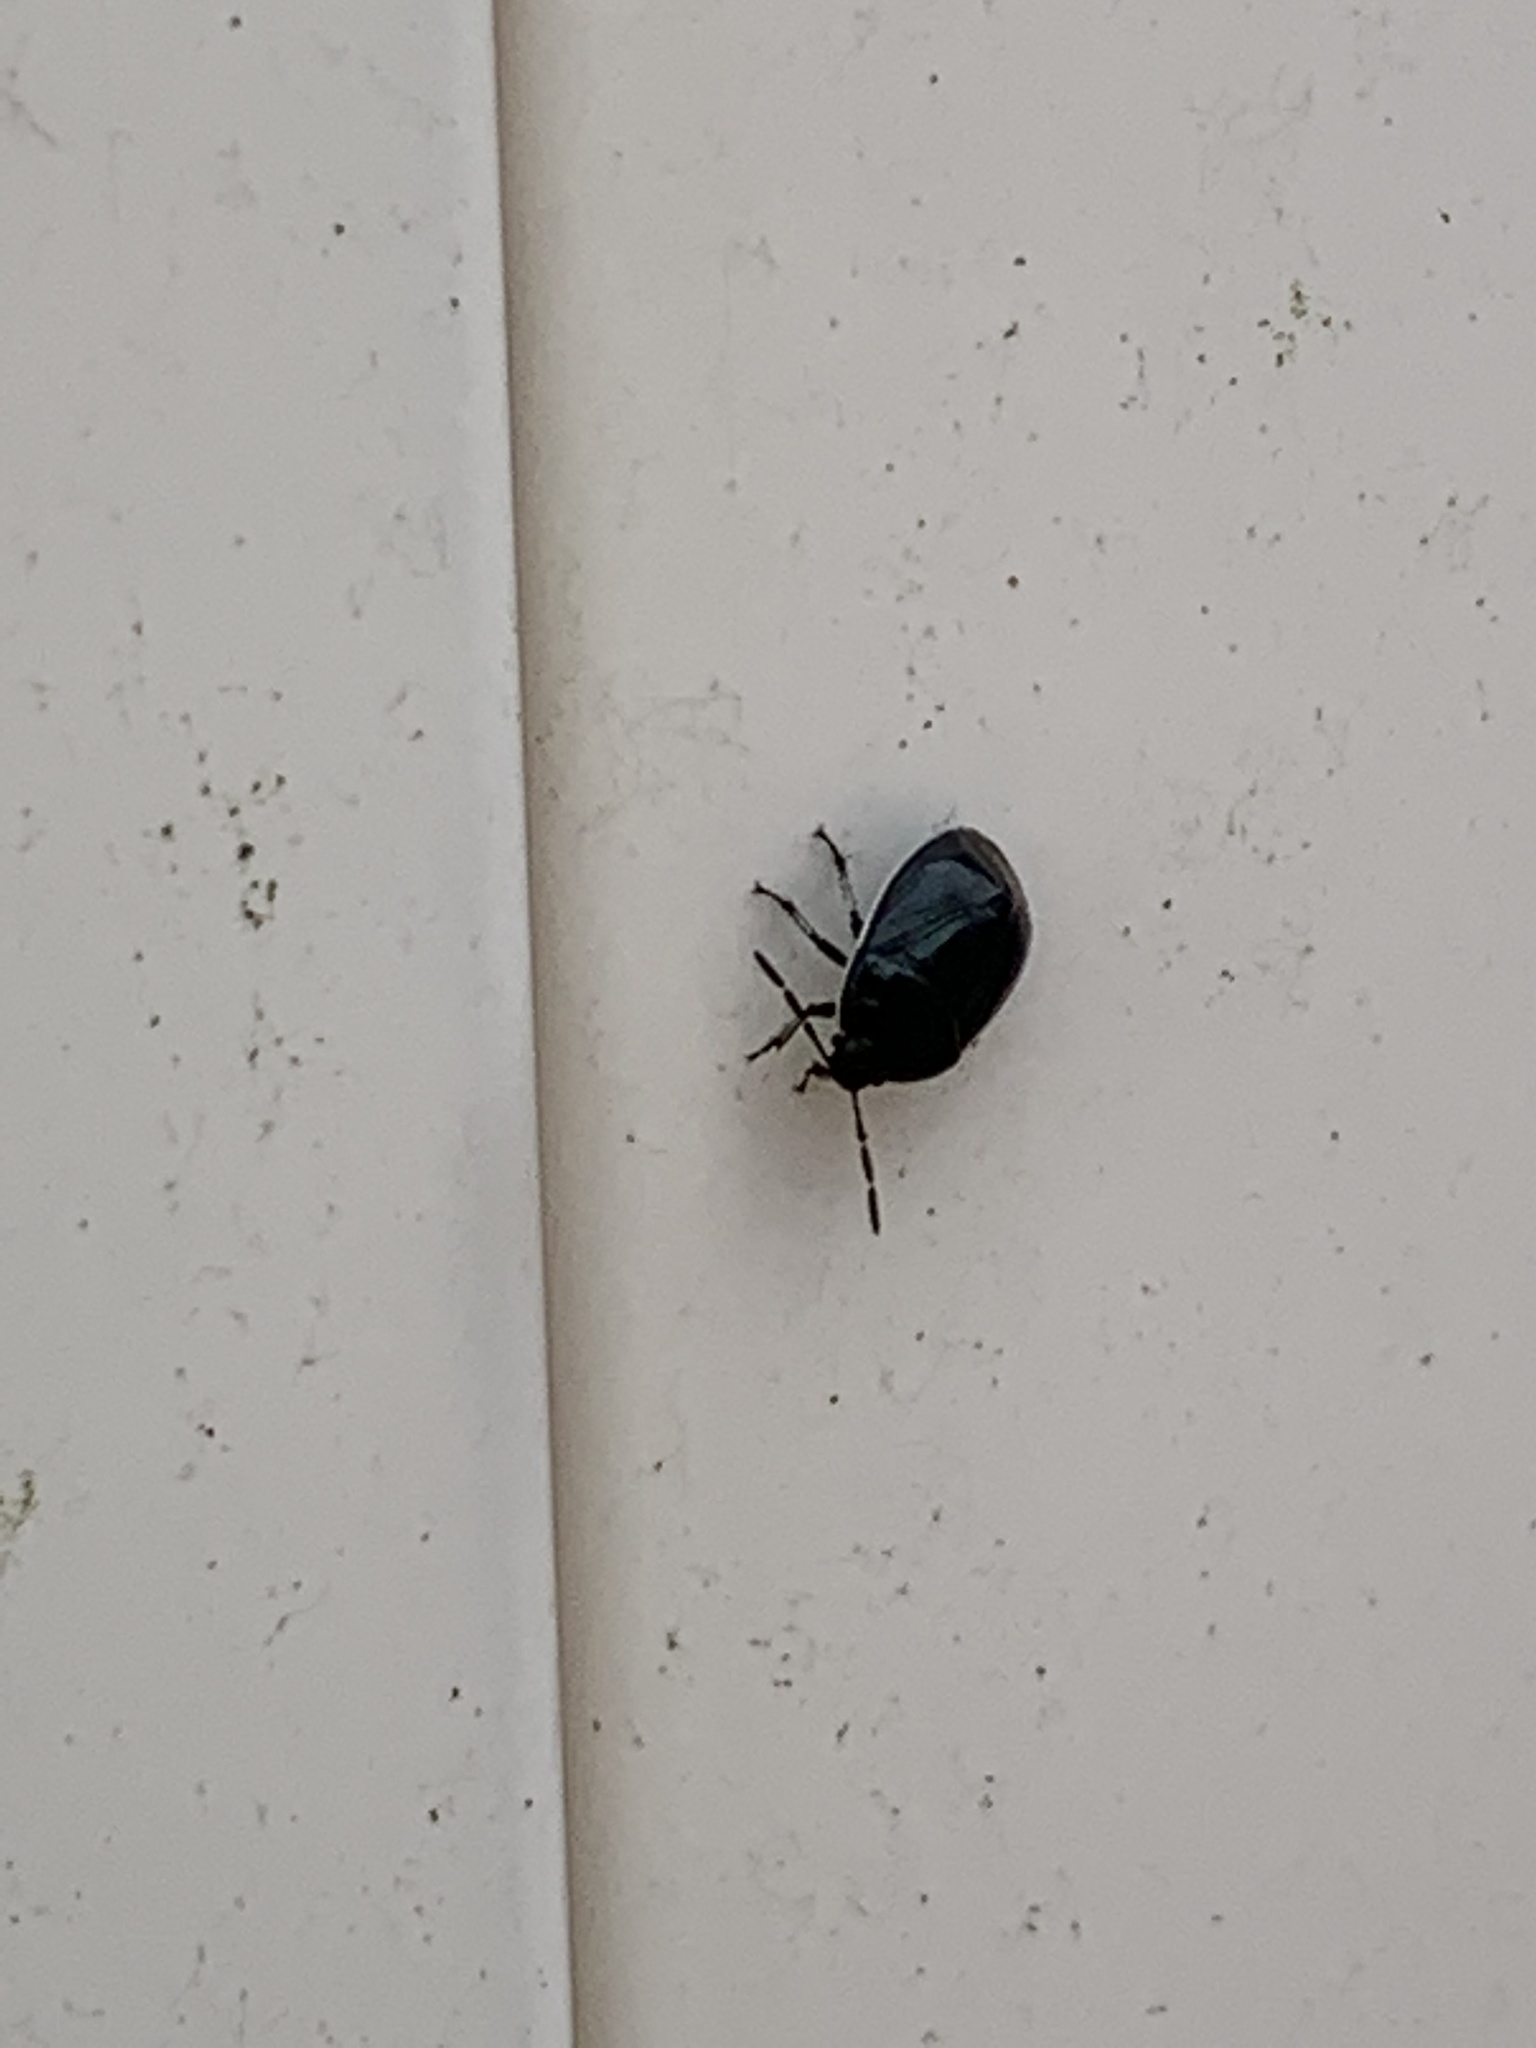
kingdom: Animalia
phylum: Arthropoda
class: Insecta
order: Hemiptera
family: Cydnidae
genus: Sehirus
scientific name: Sehirus cinctus
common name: White-margined burrower bug
